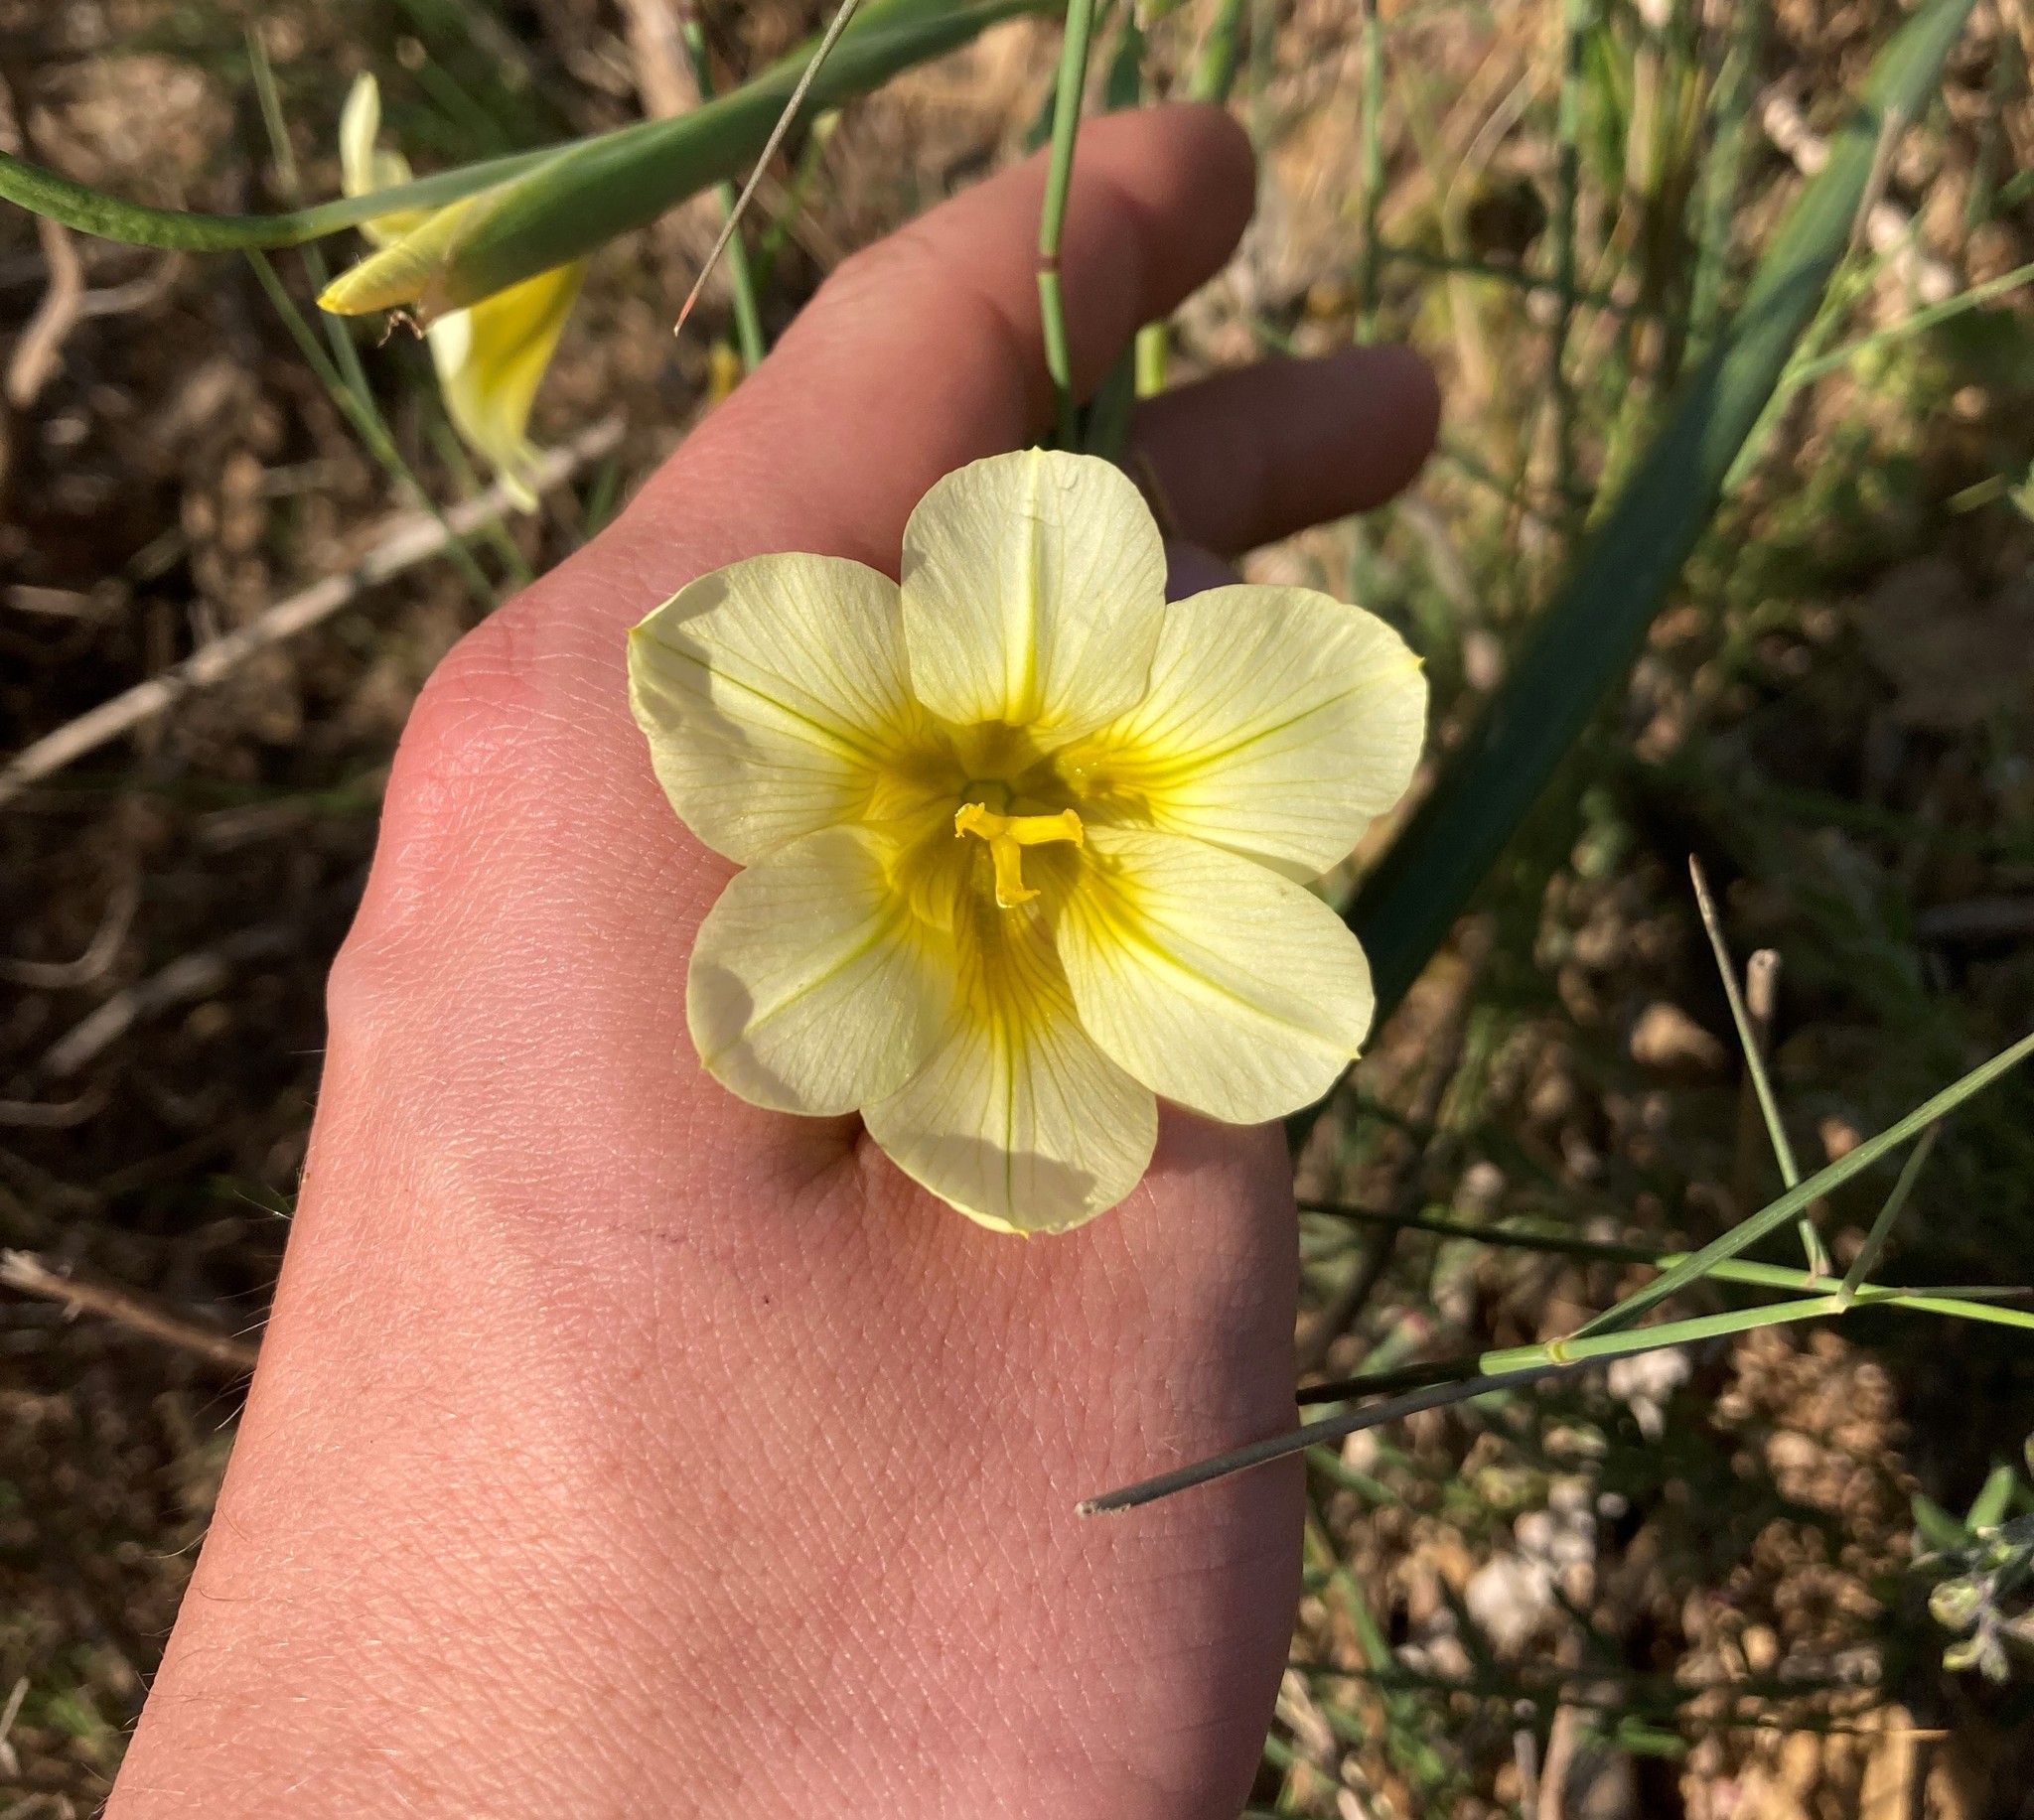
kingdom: Plantae
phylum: Tracheophyta
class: Liliopsida
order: Asparagales
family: Iridaceae
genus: Moraea
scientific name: Moraea ochroleuca
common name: Red tulp
